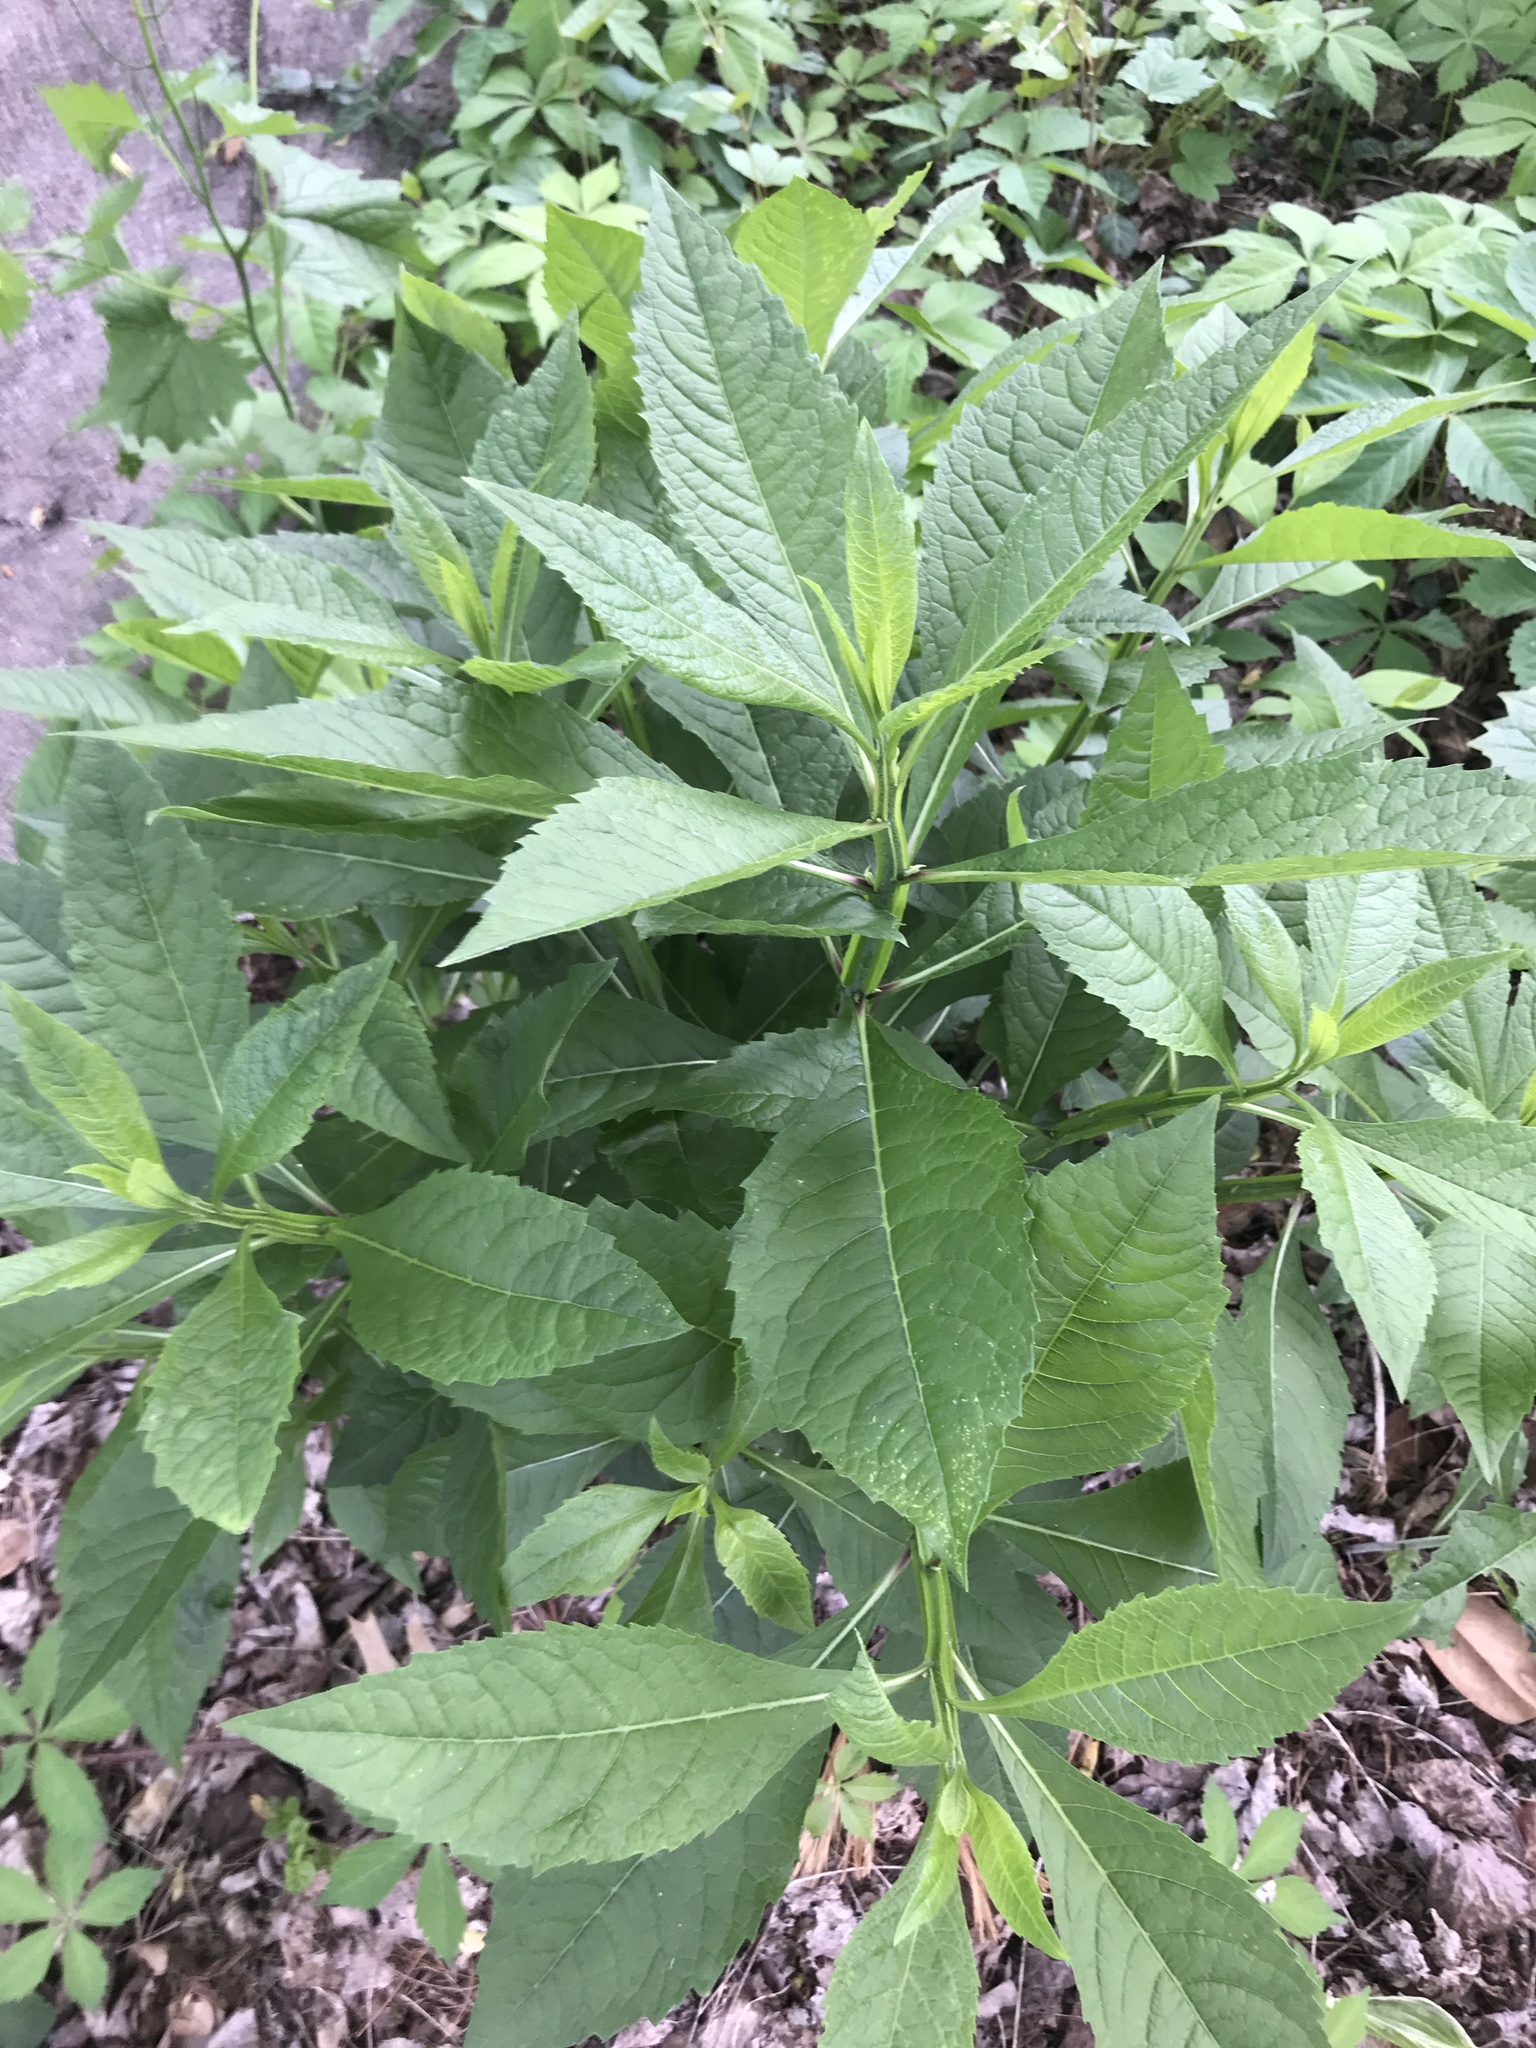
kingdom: Plantae
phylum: Tracheophyta
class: Magnoliopsida
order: Asterales
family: Asteraceae
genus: Verbesina
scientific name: Verbesina alternifolia
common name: Wingstem
